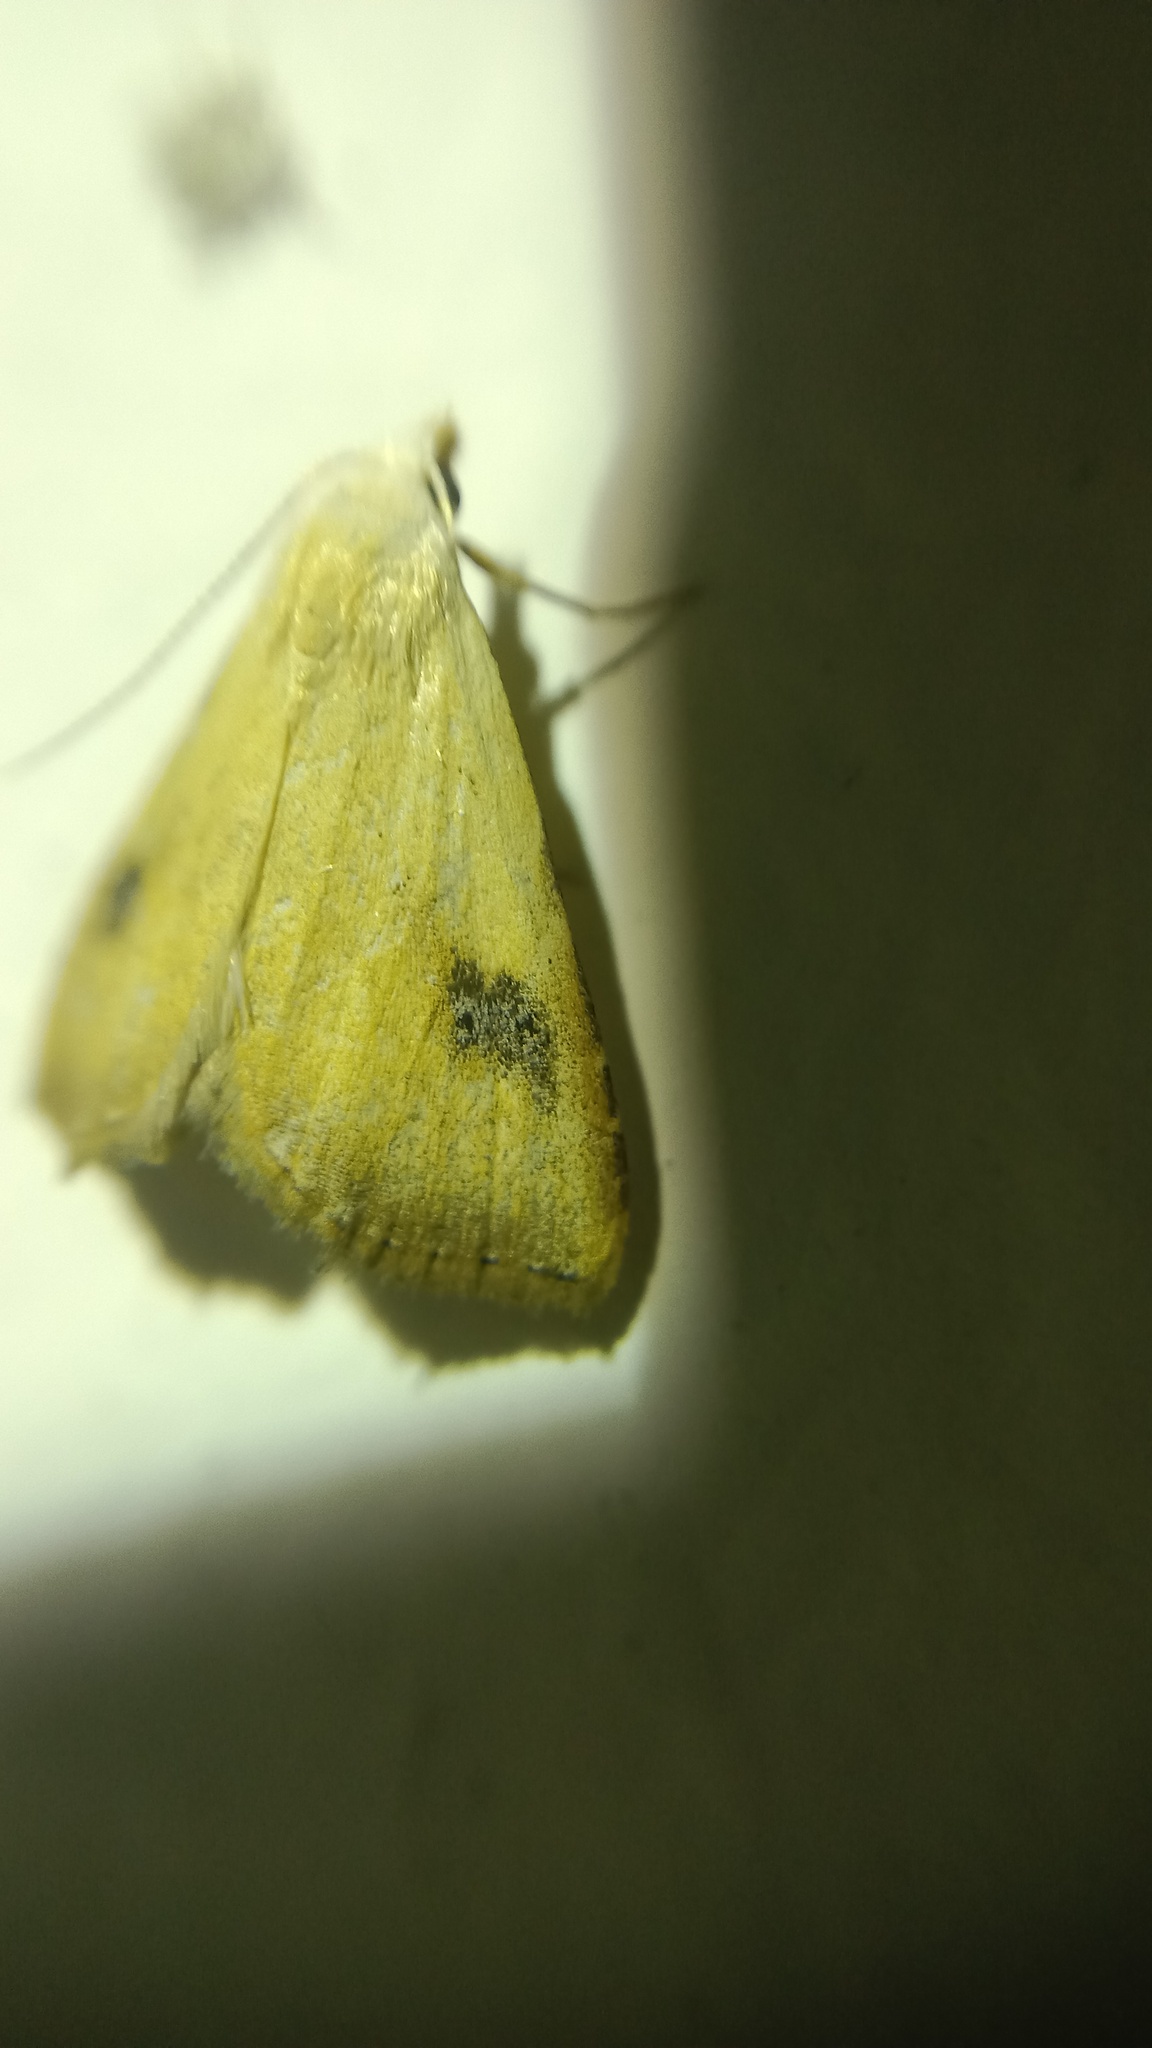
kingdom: Animalia
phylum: Arthropoda
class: Insecta
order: Lepidoptera
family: Erebidae
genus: Rivula
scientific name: Rivula sericealis
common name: Straw dot
